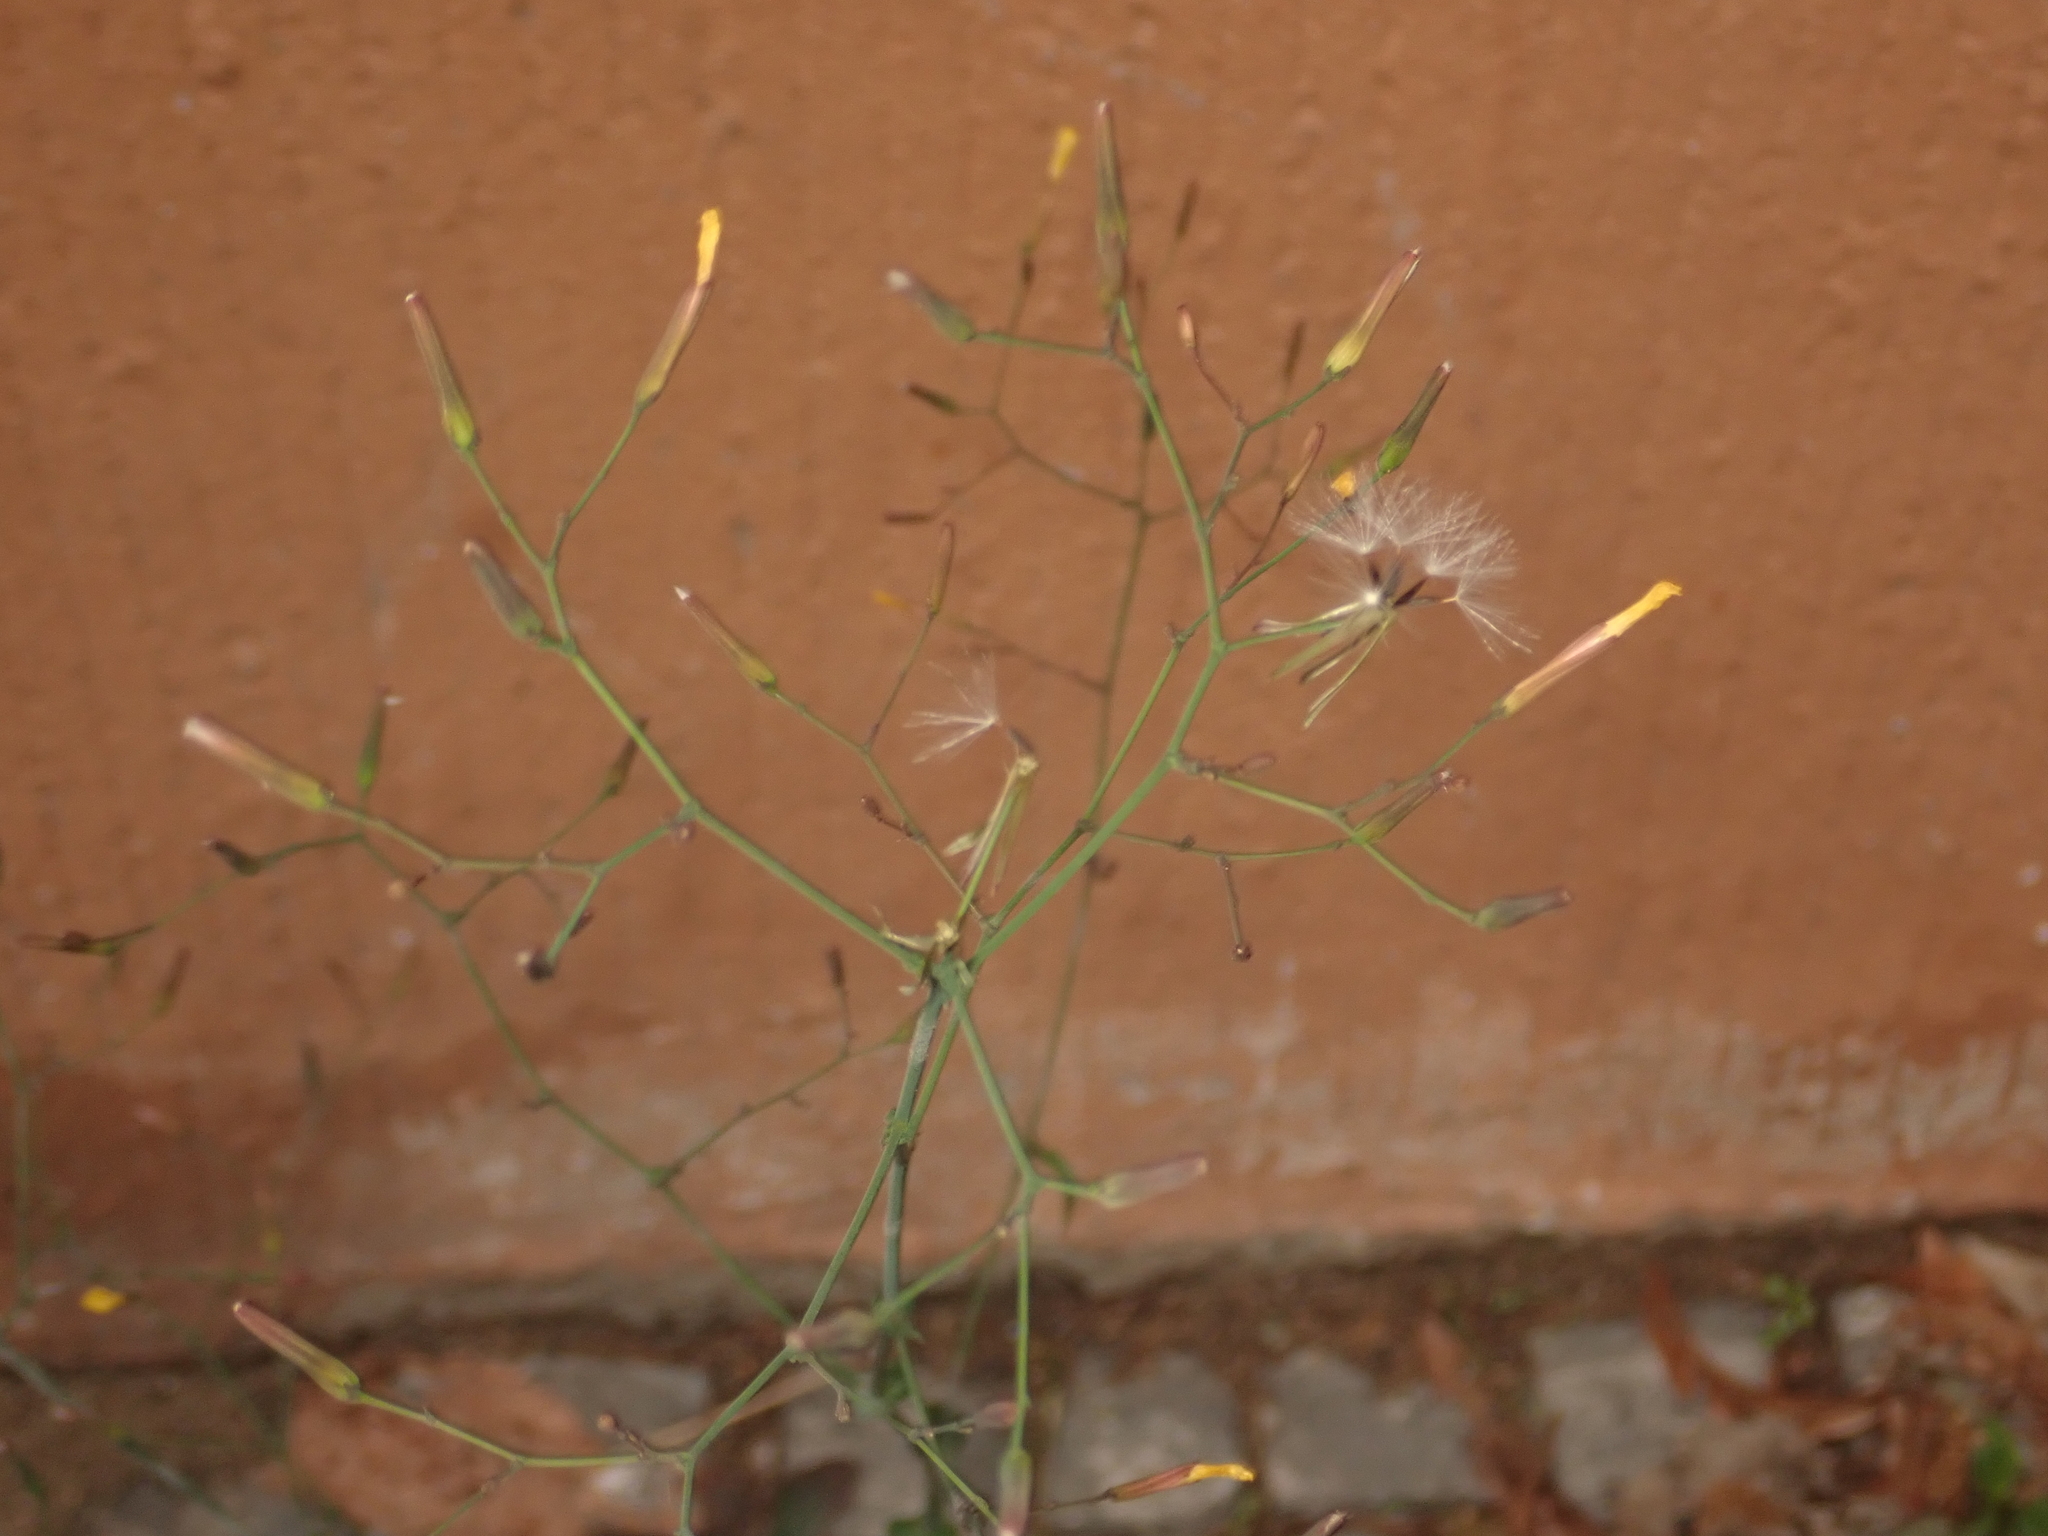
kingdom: Plantae
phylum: Tracheophyta
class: Magnoliopsida
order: Asterales
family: Asteraceae
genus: Mycelis
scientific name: Mycelis muralis
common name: Wall lettuce
